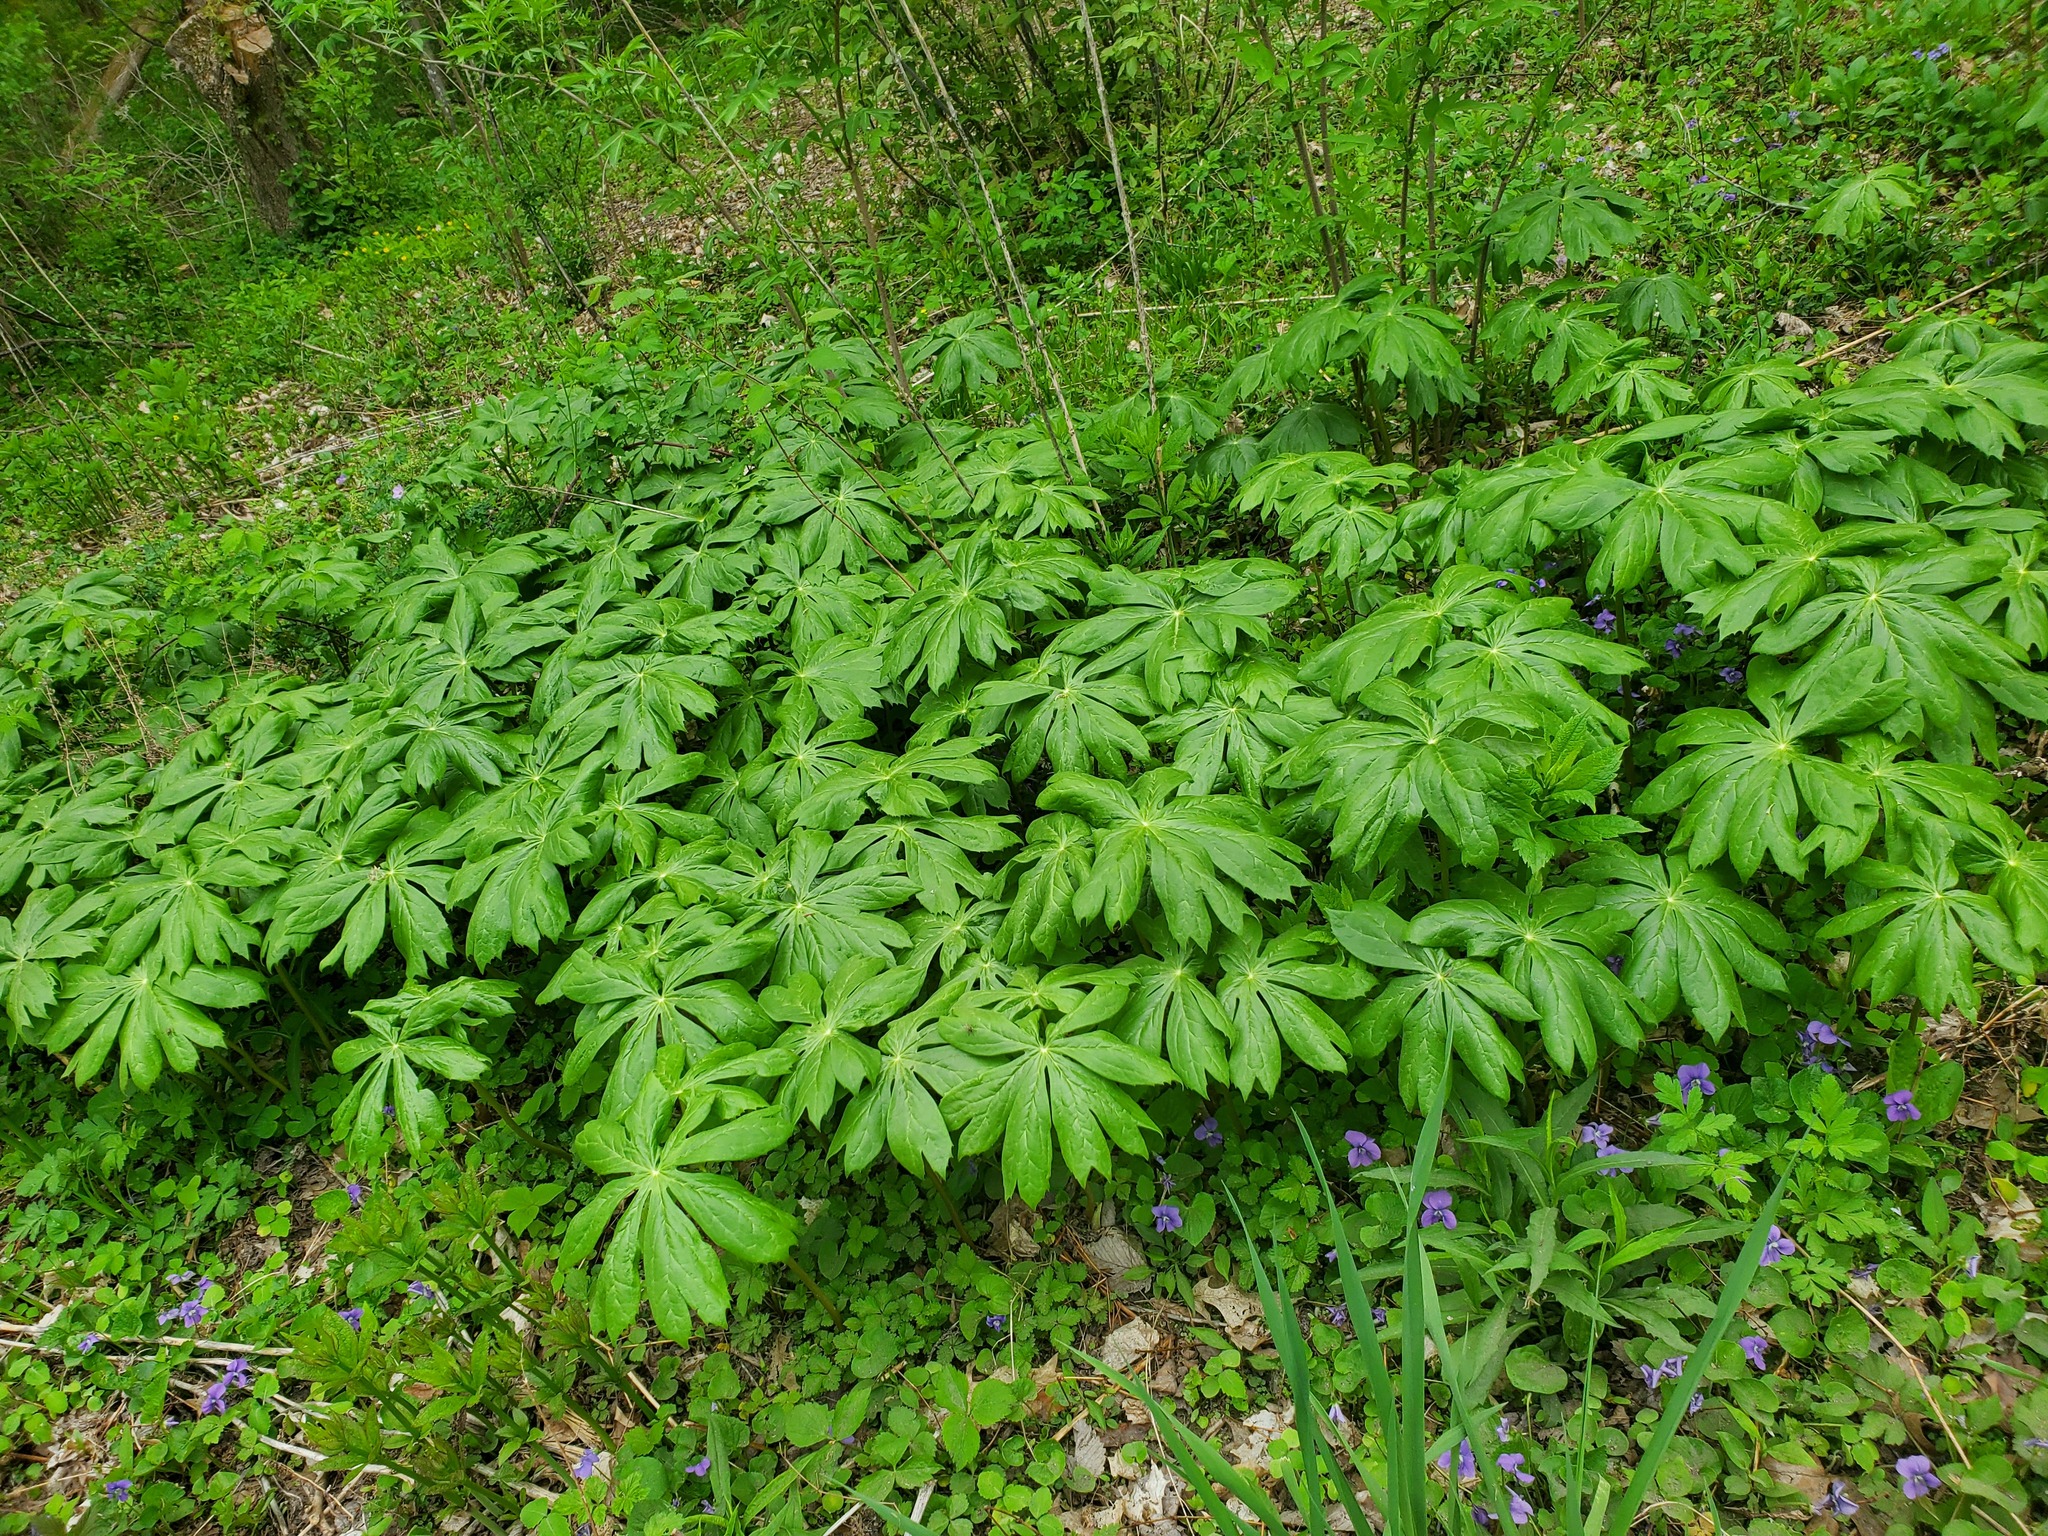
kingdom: Plantae
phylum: Tracheophyta
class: Magnoliopsida
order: Ranunculales
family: Berberidaceae
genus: Podophyllum
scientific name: Podophyllum peltatum
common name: Wild mandrake
